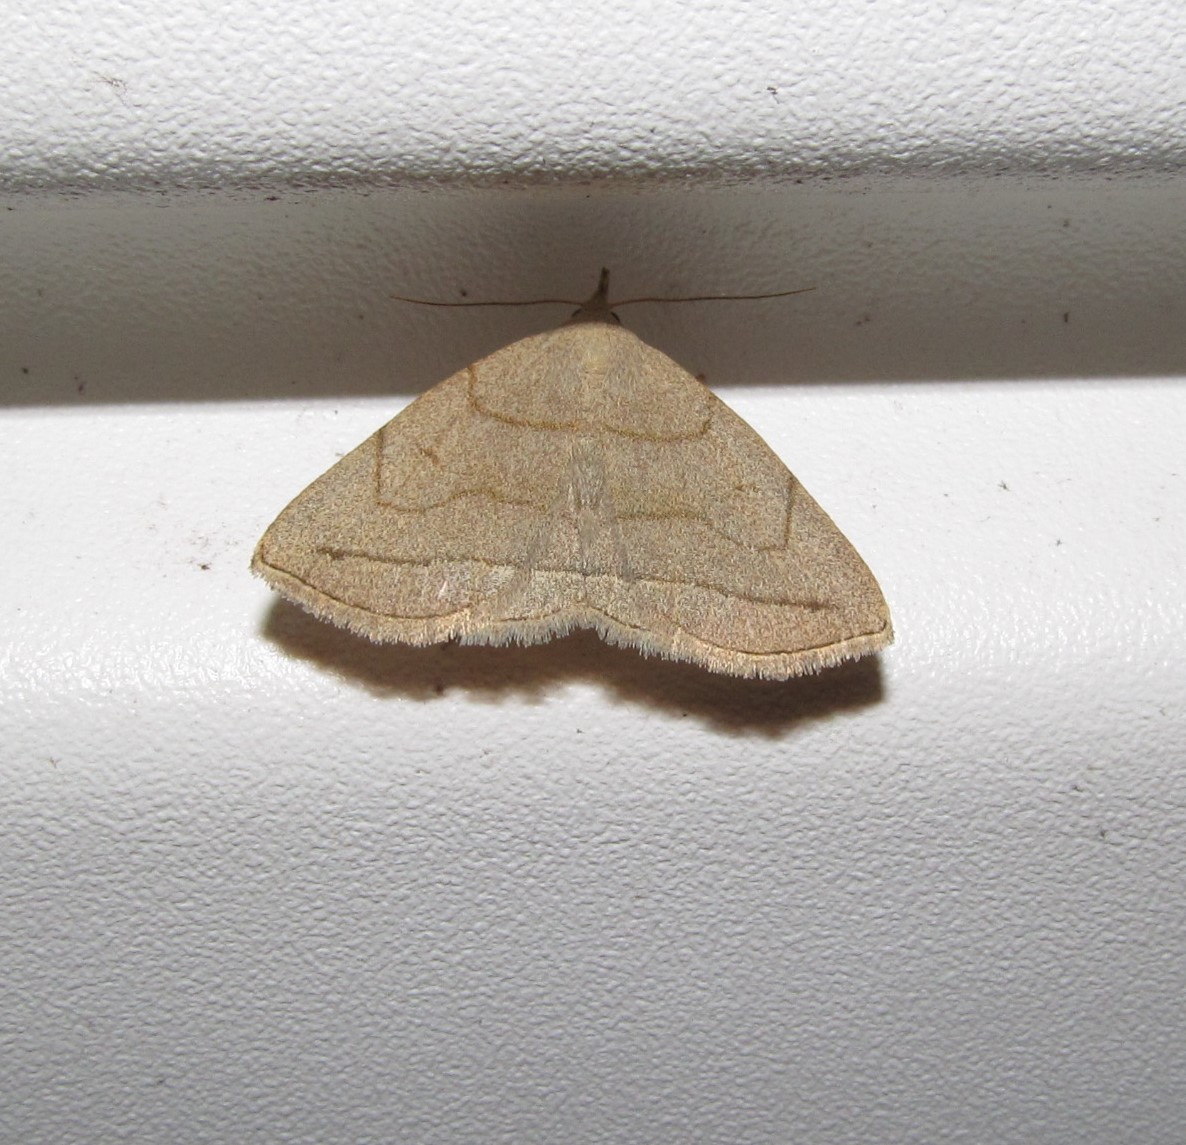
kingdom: Animalia
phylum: Arthropoda
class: Insecta
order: Lepidoptera
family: Erebidae
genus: Zanclognatha
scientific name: Zanclognatha pedipilalis
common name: Grayish fan-foot
